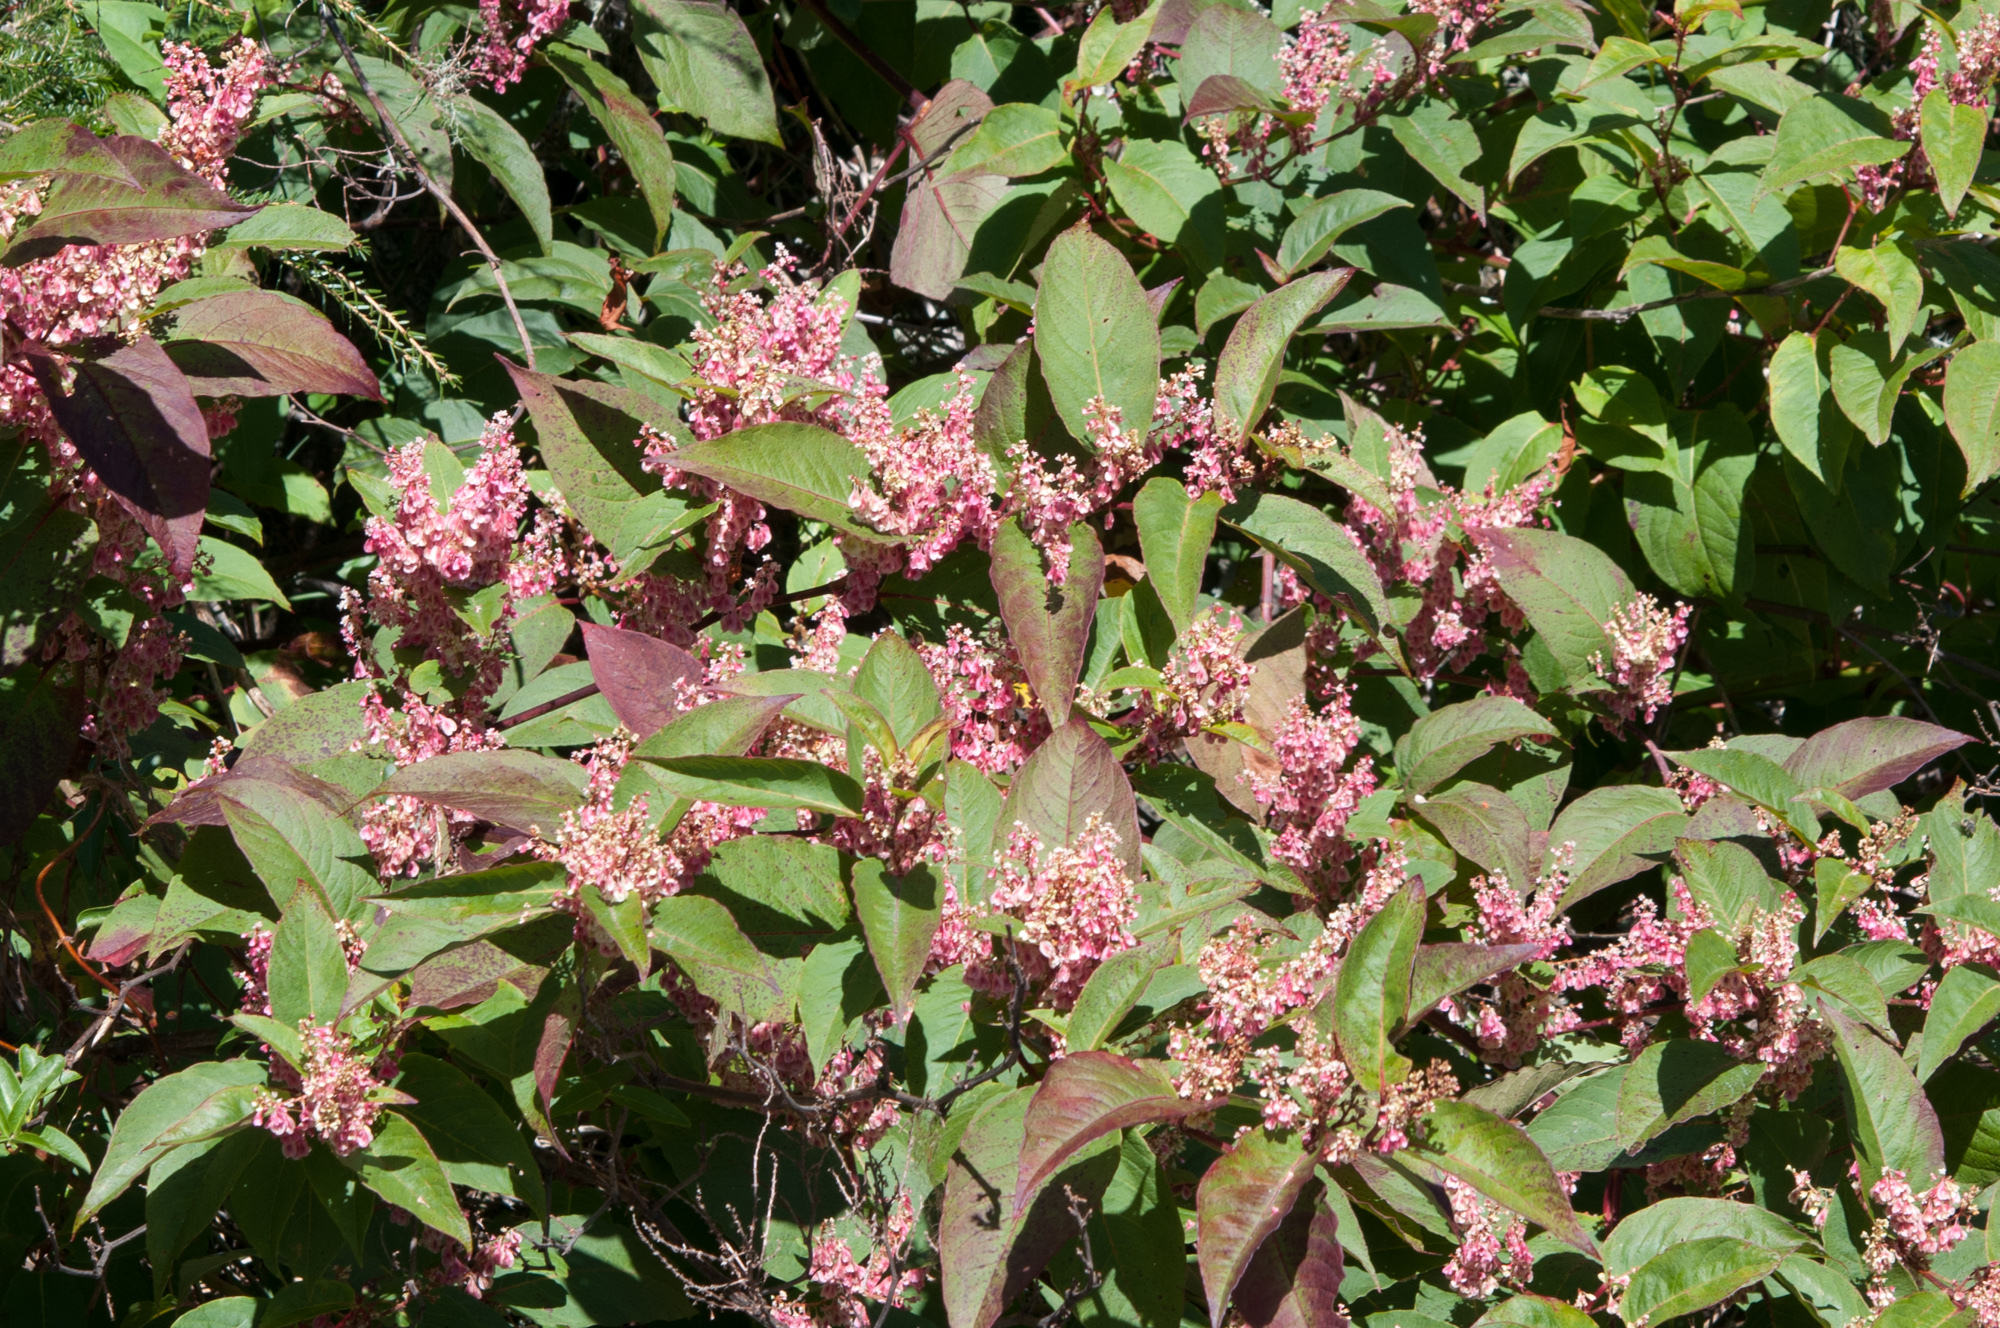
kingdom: Plantae
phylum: Tracheophyta
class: Magnoliopsida
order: Caryophyllales
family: Polygonaceae
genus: Reynoutria
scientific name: Reynoutria japonica
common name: Japanese knotweed
